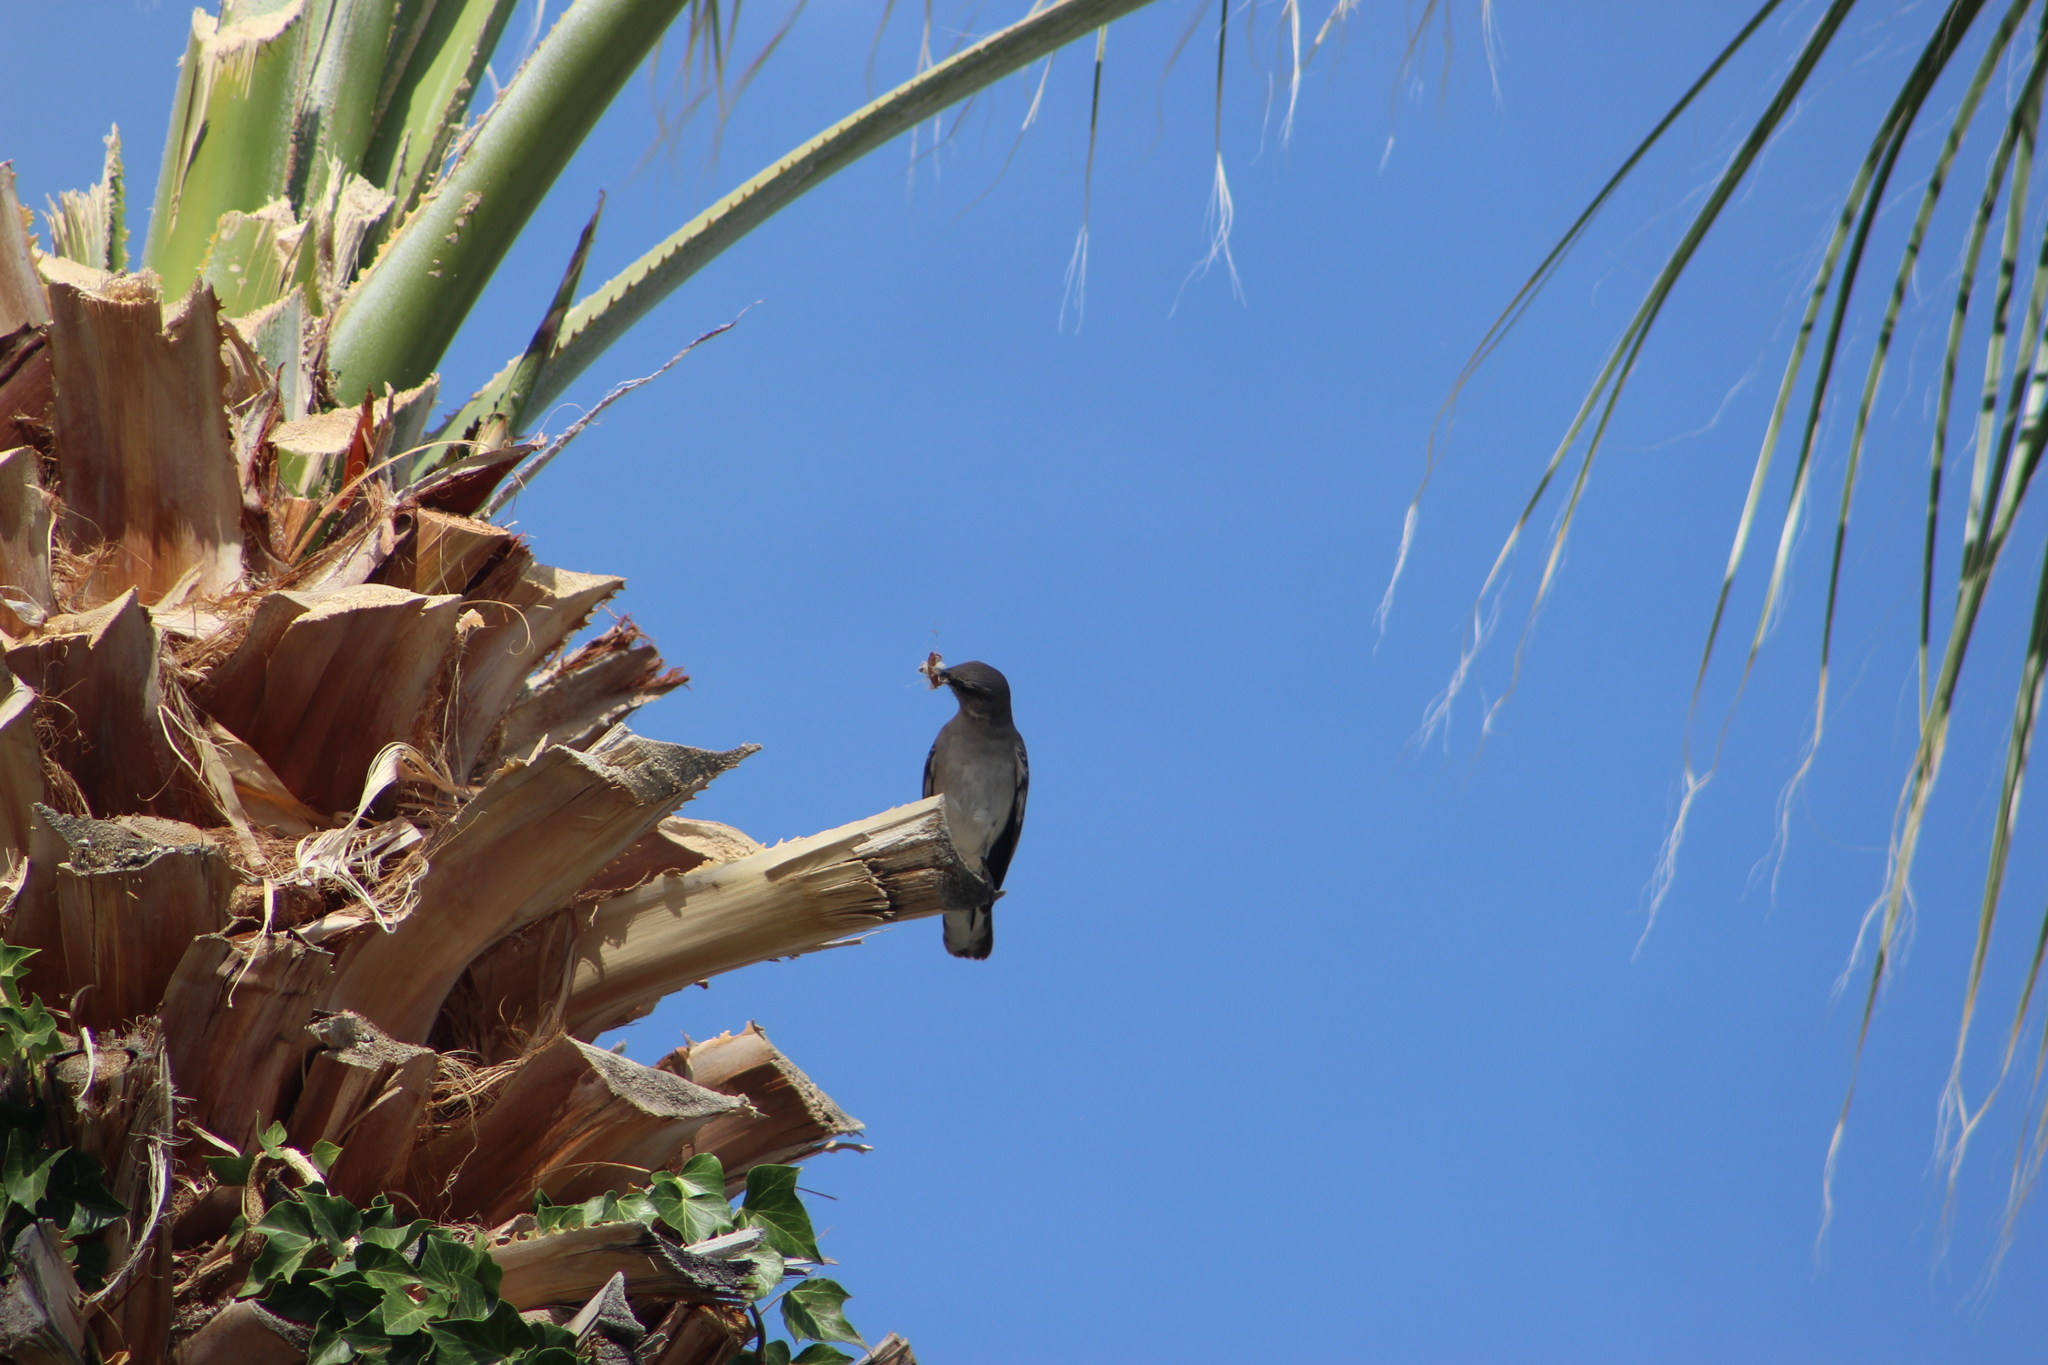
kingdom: Animalia
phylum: Chordata
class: Aves
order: Passeriformes
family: Mimidae
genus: Mimus
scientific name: Mimus polyglottos
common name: Northern mockingbird
